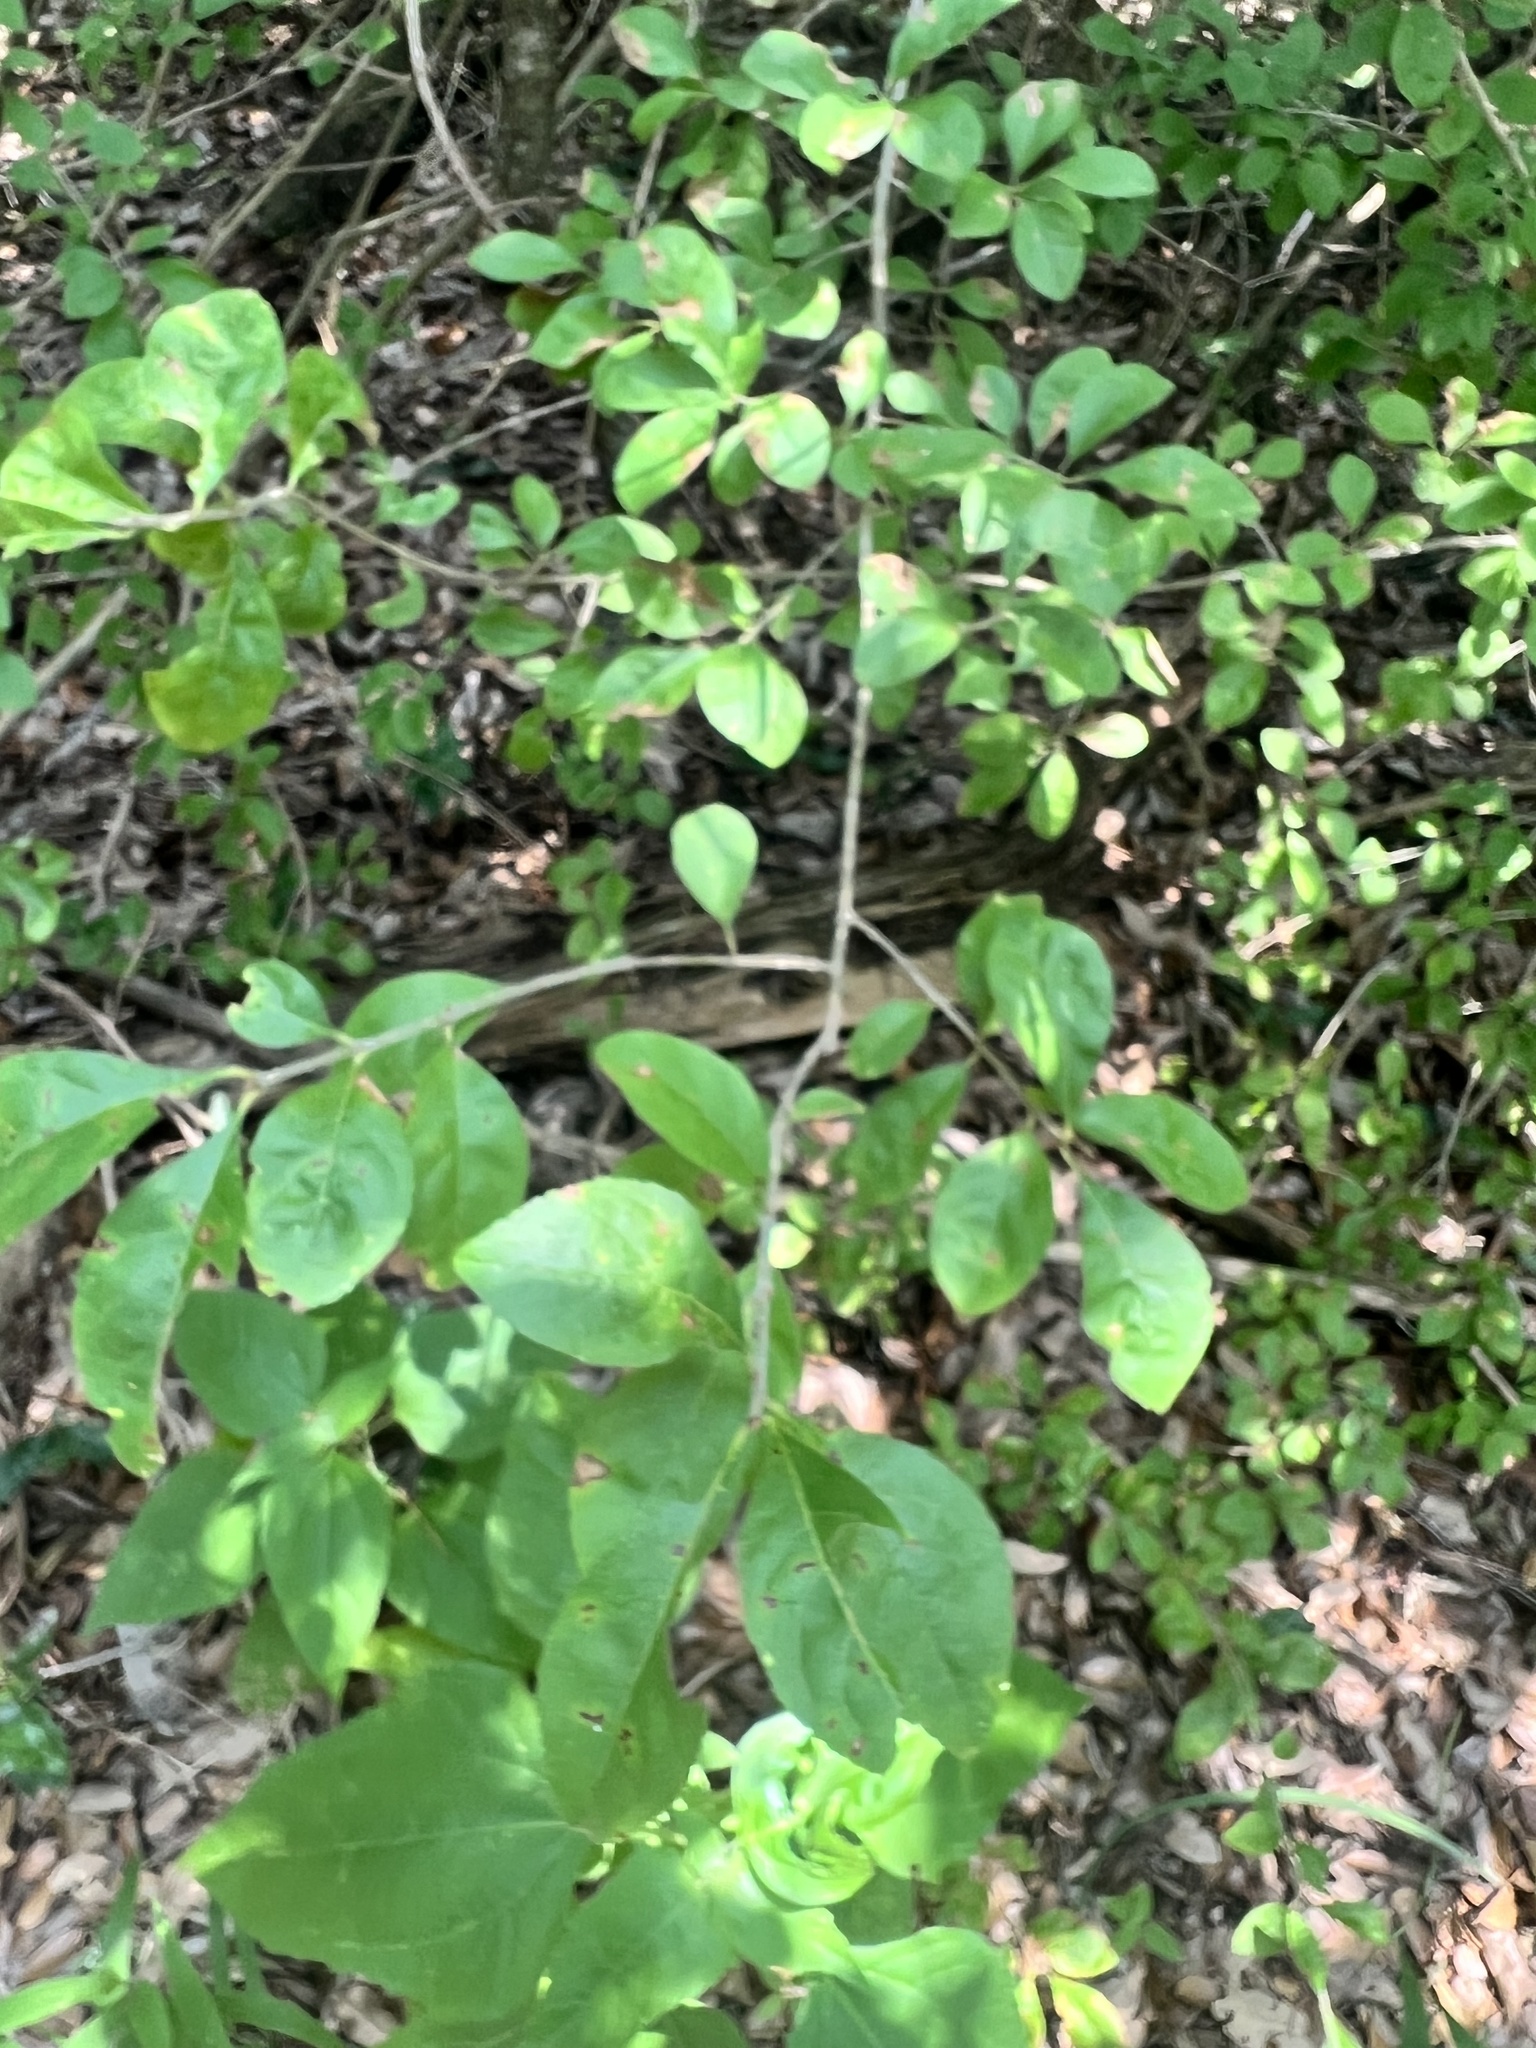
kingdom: Plantae
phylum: Tracheophyta
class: Magnoliopsida
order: Lamiales
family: Oleaceae
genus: Forestiera
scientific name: Forestiera pubescens
